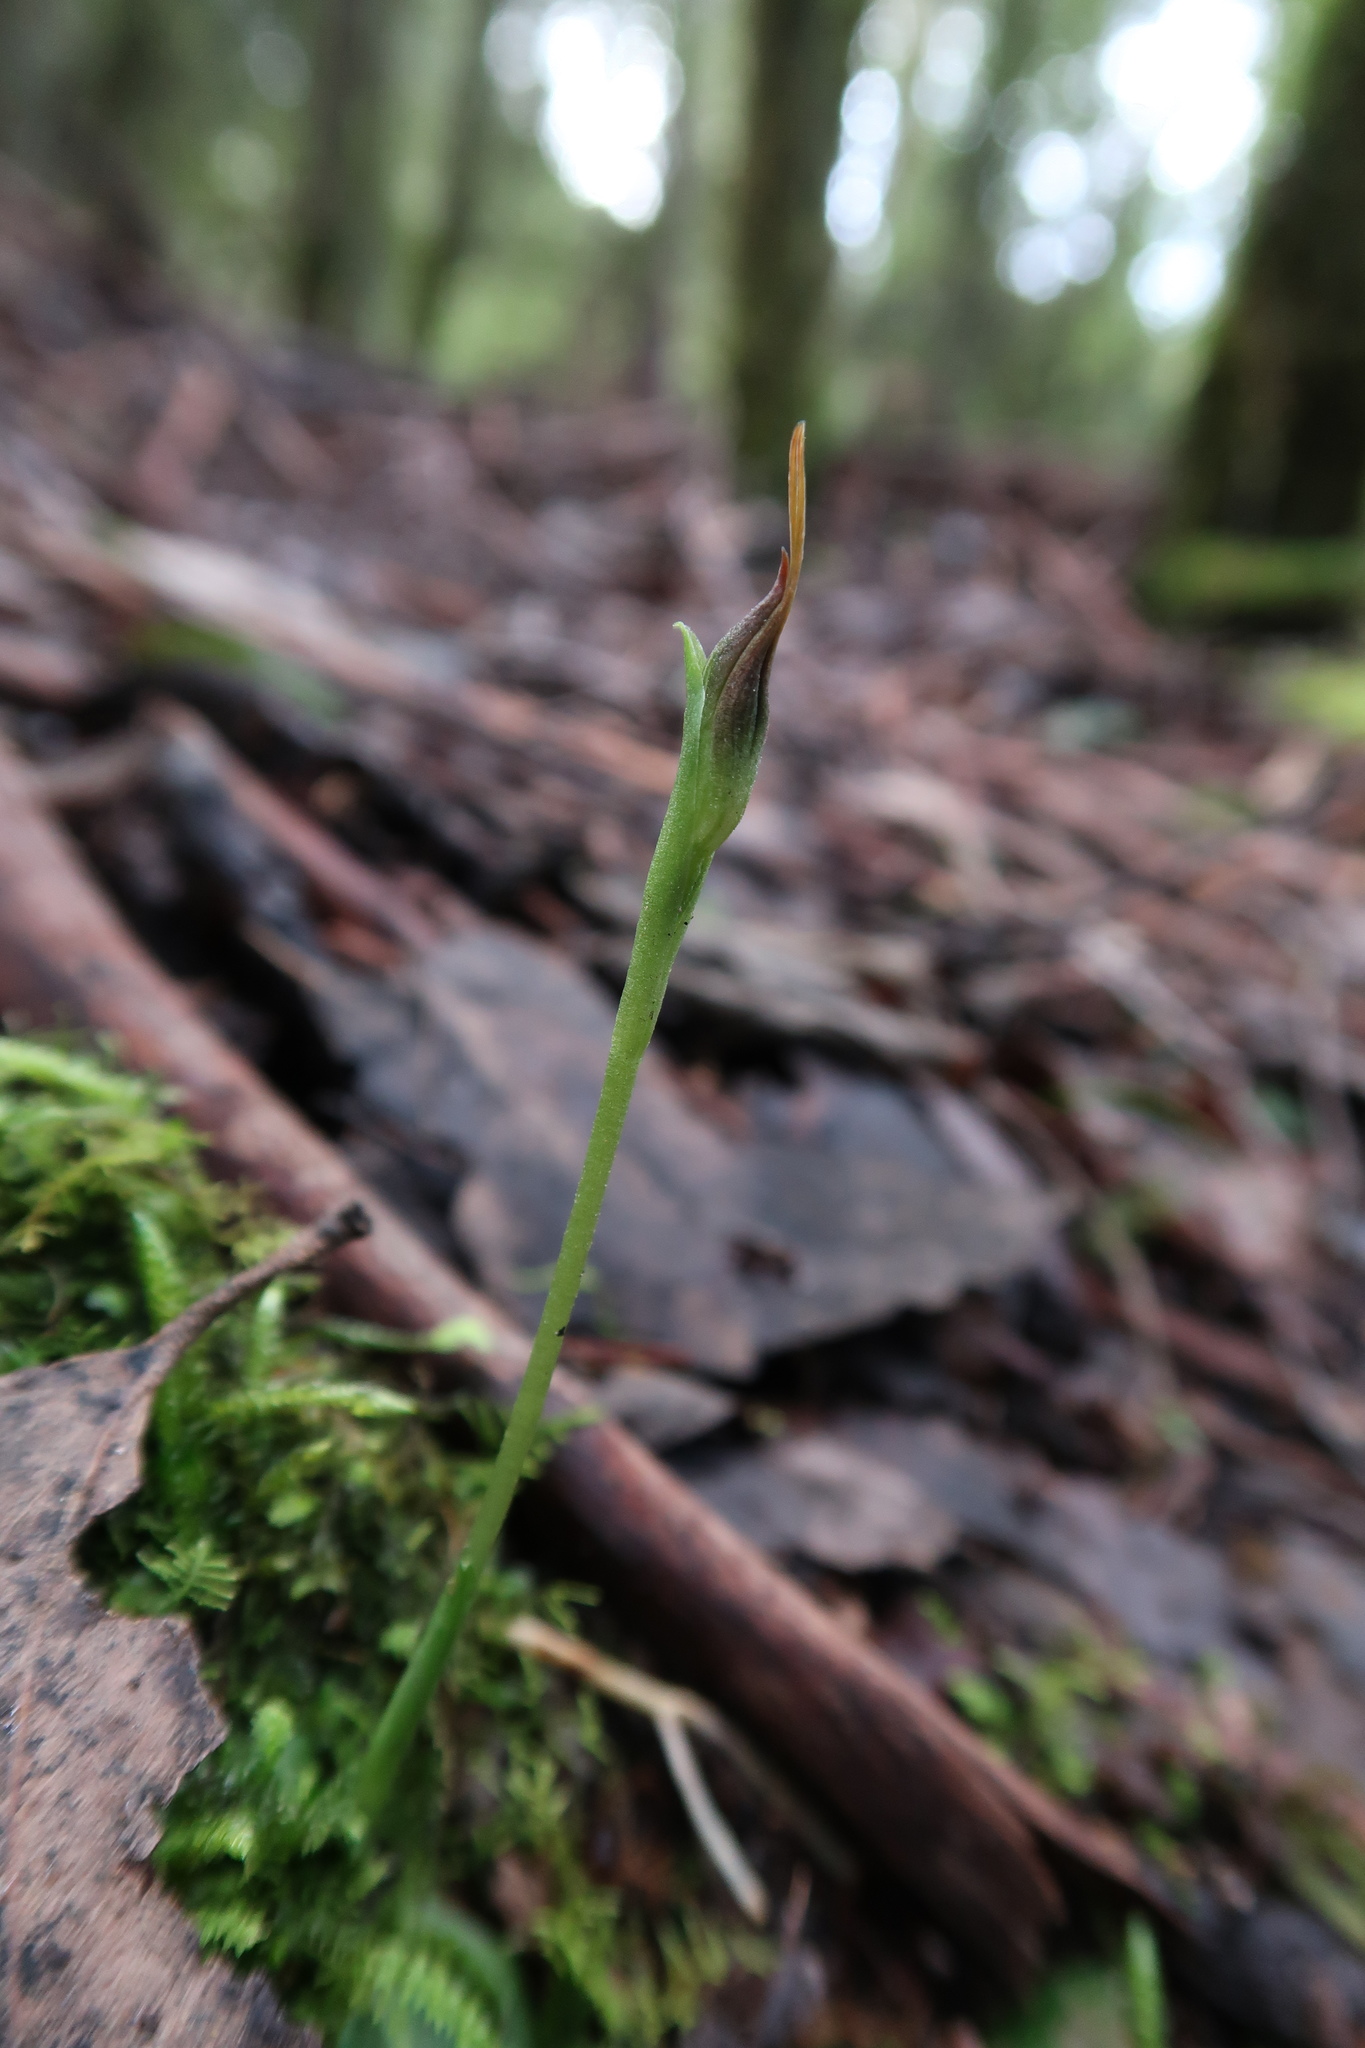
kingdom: Plantae
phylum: Tracheophyta
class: Liliopsida
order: Asparagales
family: Orchidaceae
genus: Pterostylis
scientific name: Pterostylis pedunculata
